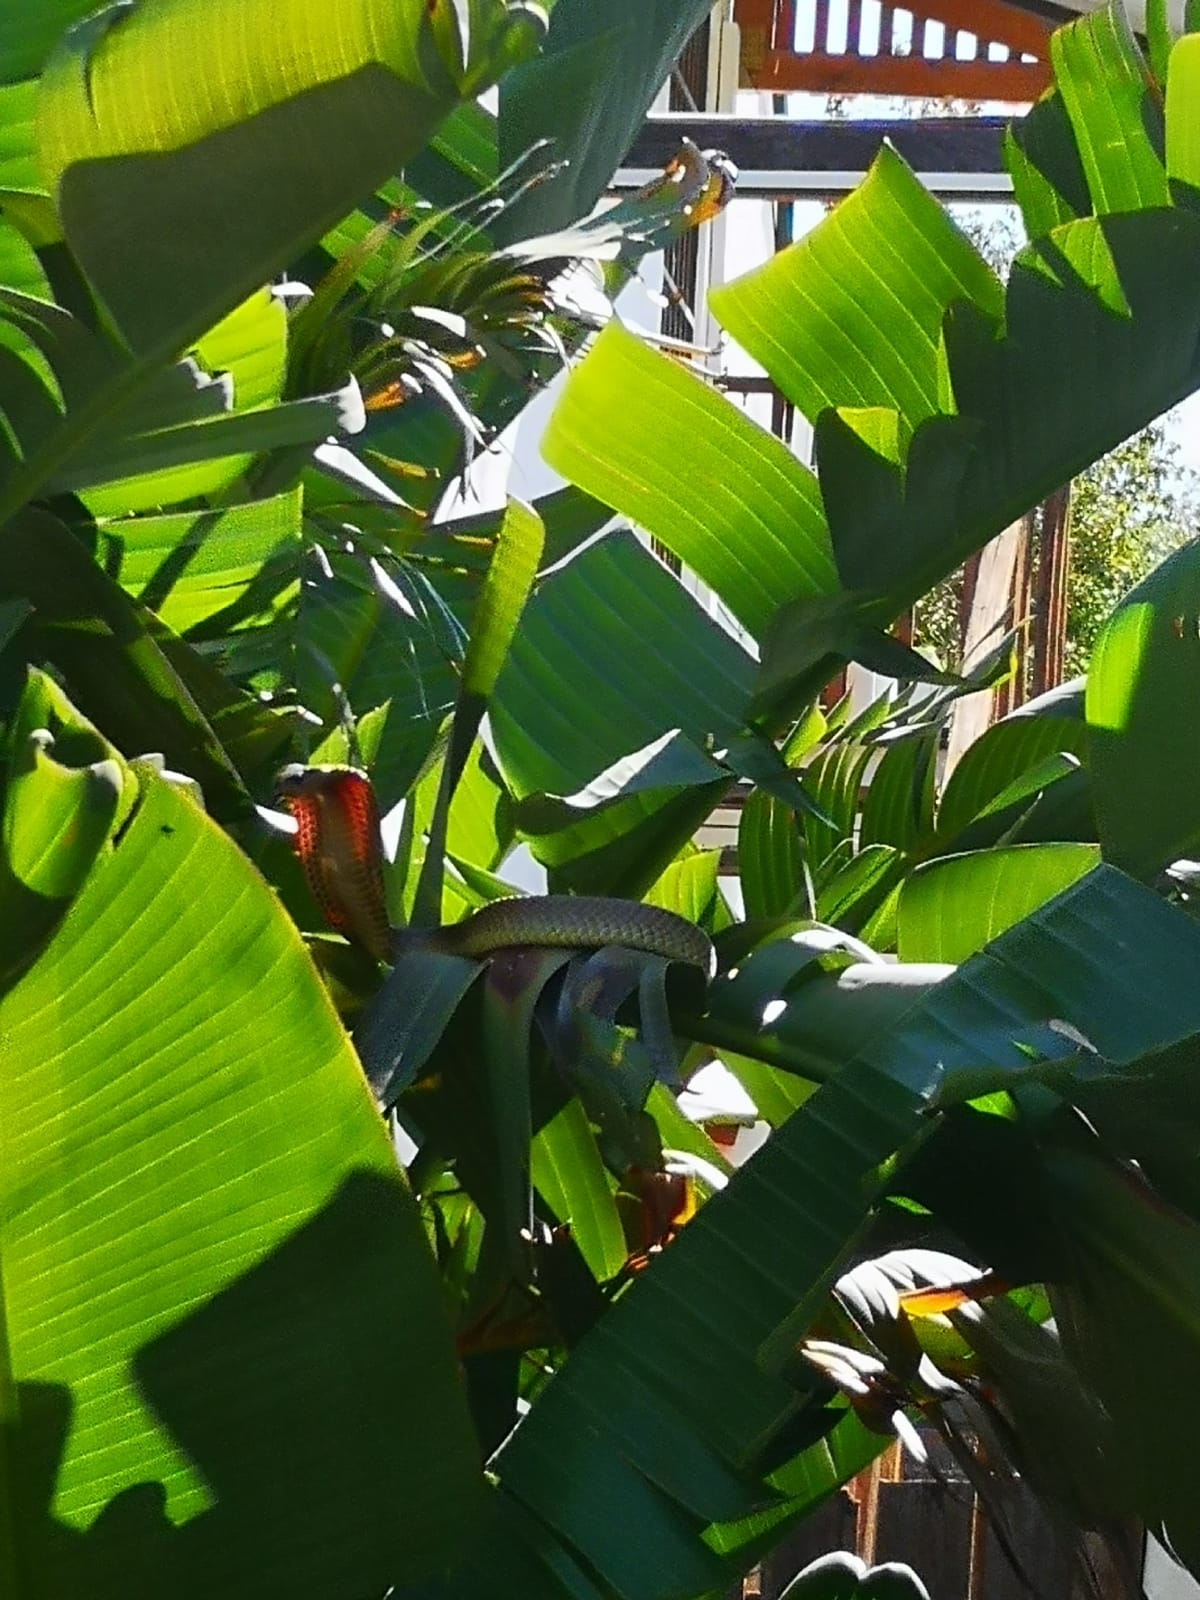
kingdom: Animalia
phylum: Chordata
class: Squamata
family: Elapidae
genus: Naja
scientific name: Naja nivea
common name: Cape cobra
